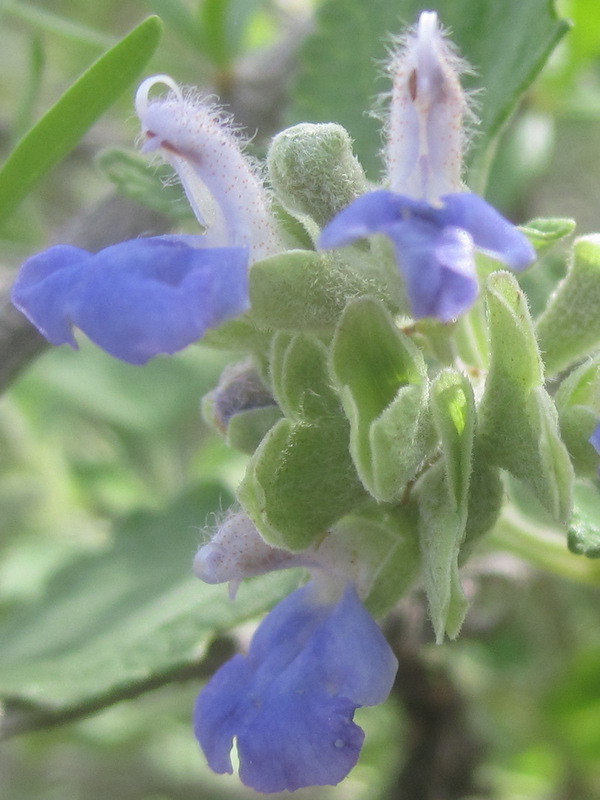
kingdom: Plantae
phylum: Tracheophyta
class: Magnoliopsida
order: Lamiales
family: Lamiaceae
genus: Salvia
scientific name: Salvia ballotiflora
